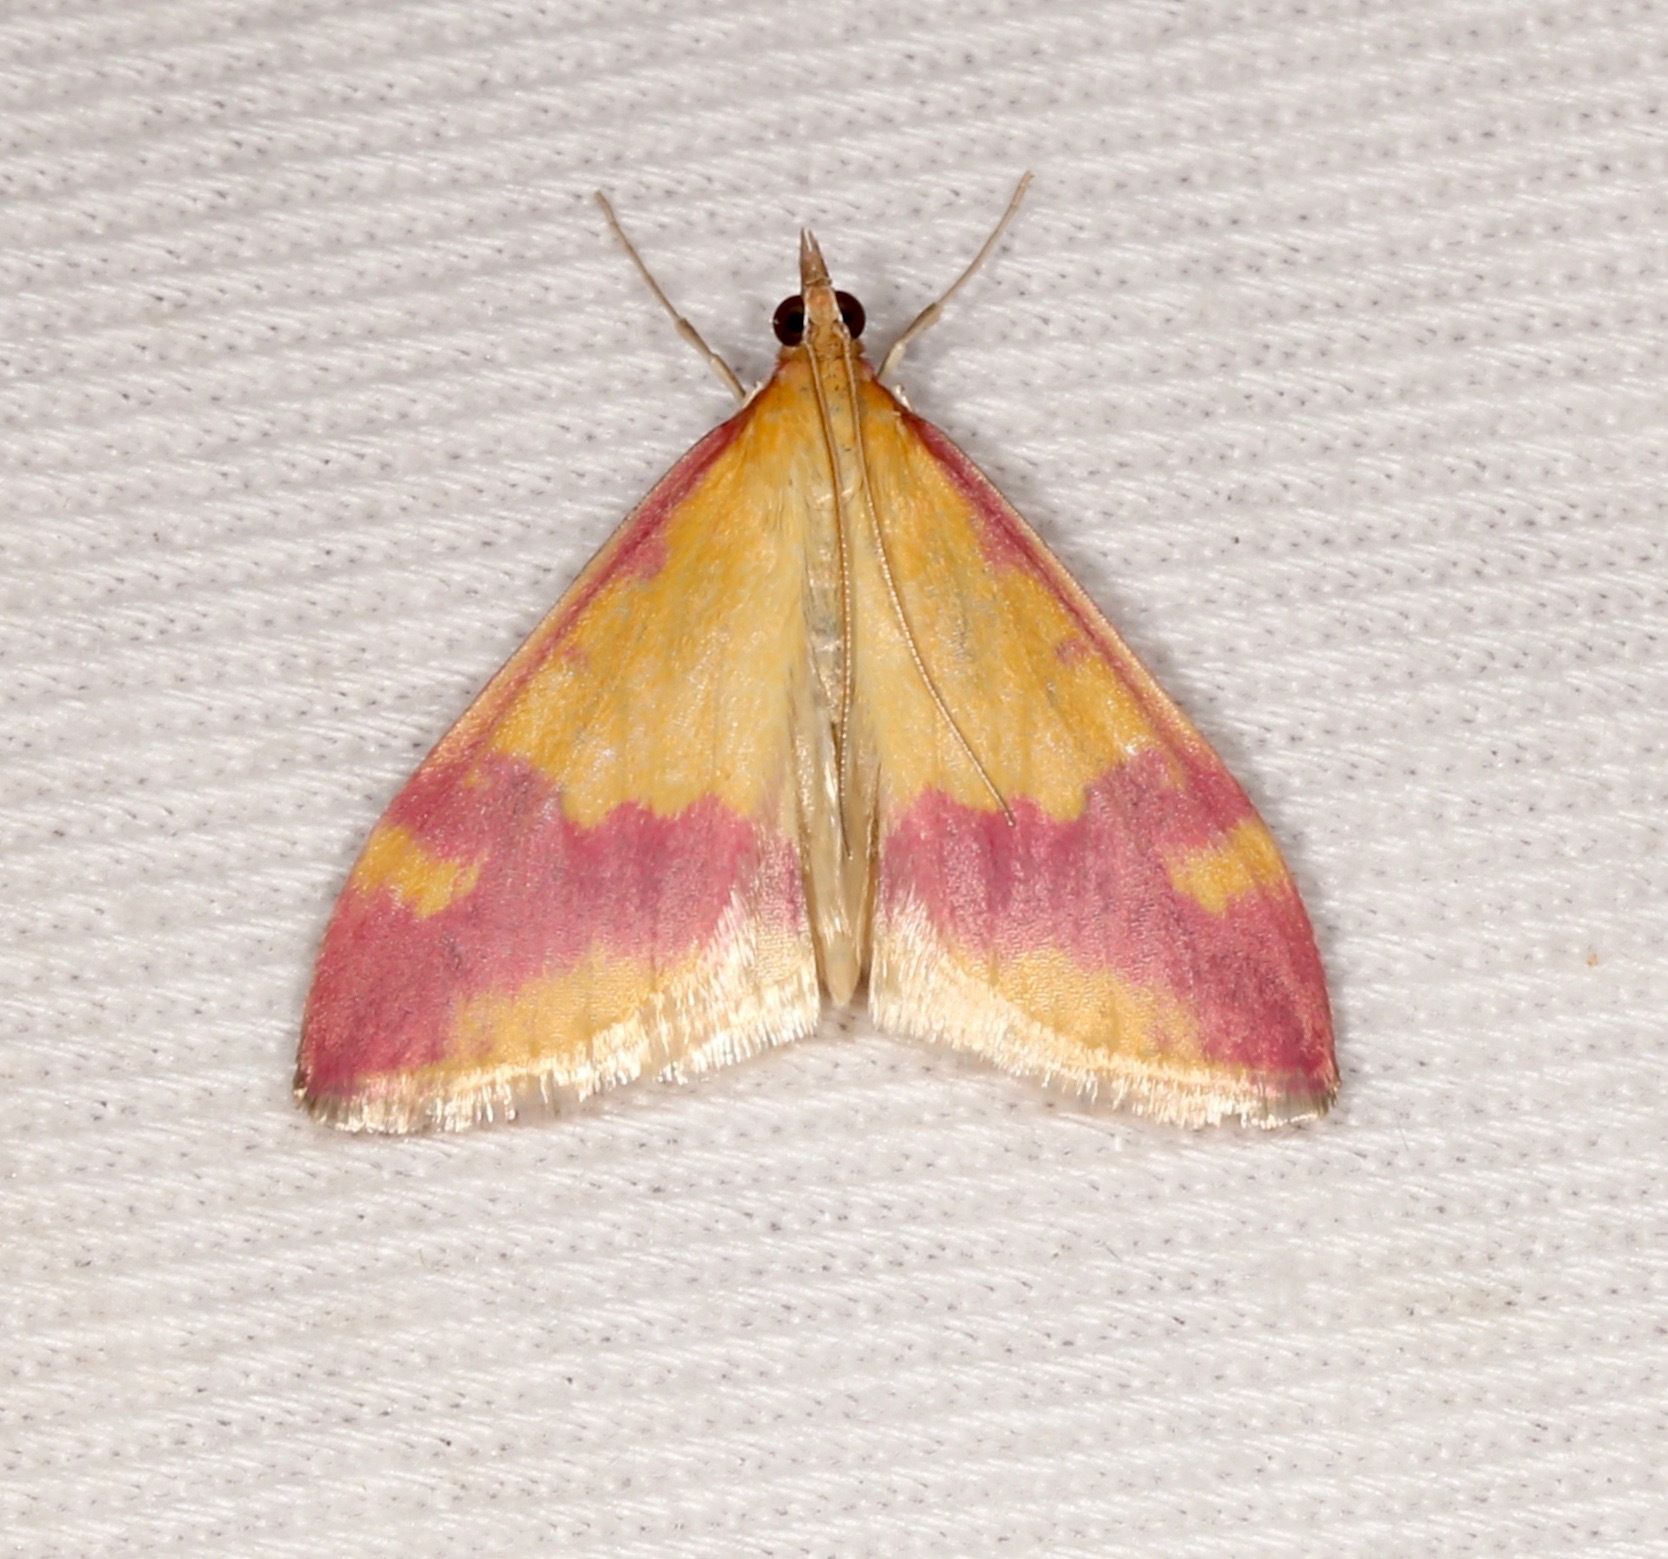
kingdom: Animalia
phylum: Arthropoda
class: Insecta
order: Lepidoptera
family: Crambidae
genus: Pyrausta
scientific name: Pyrausta scurralis
